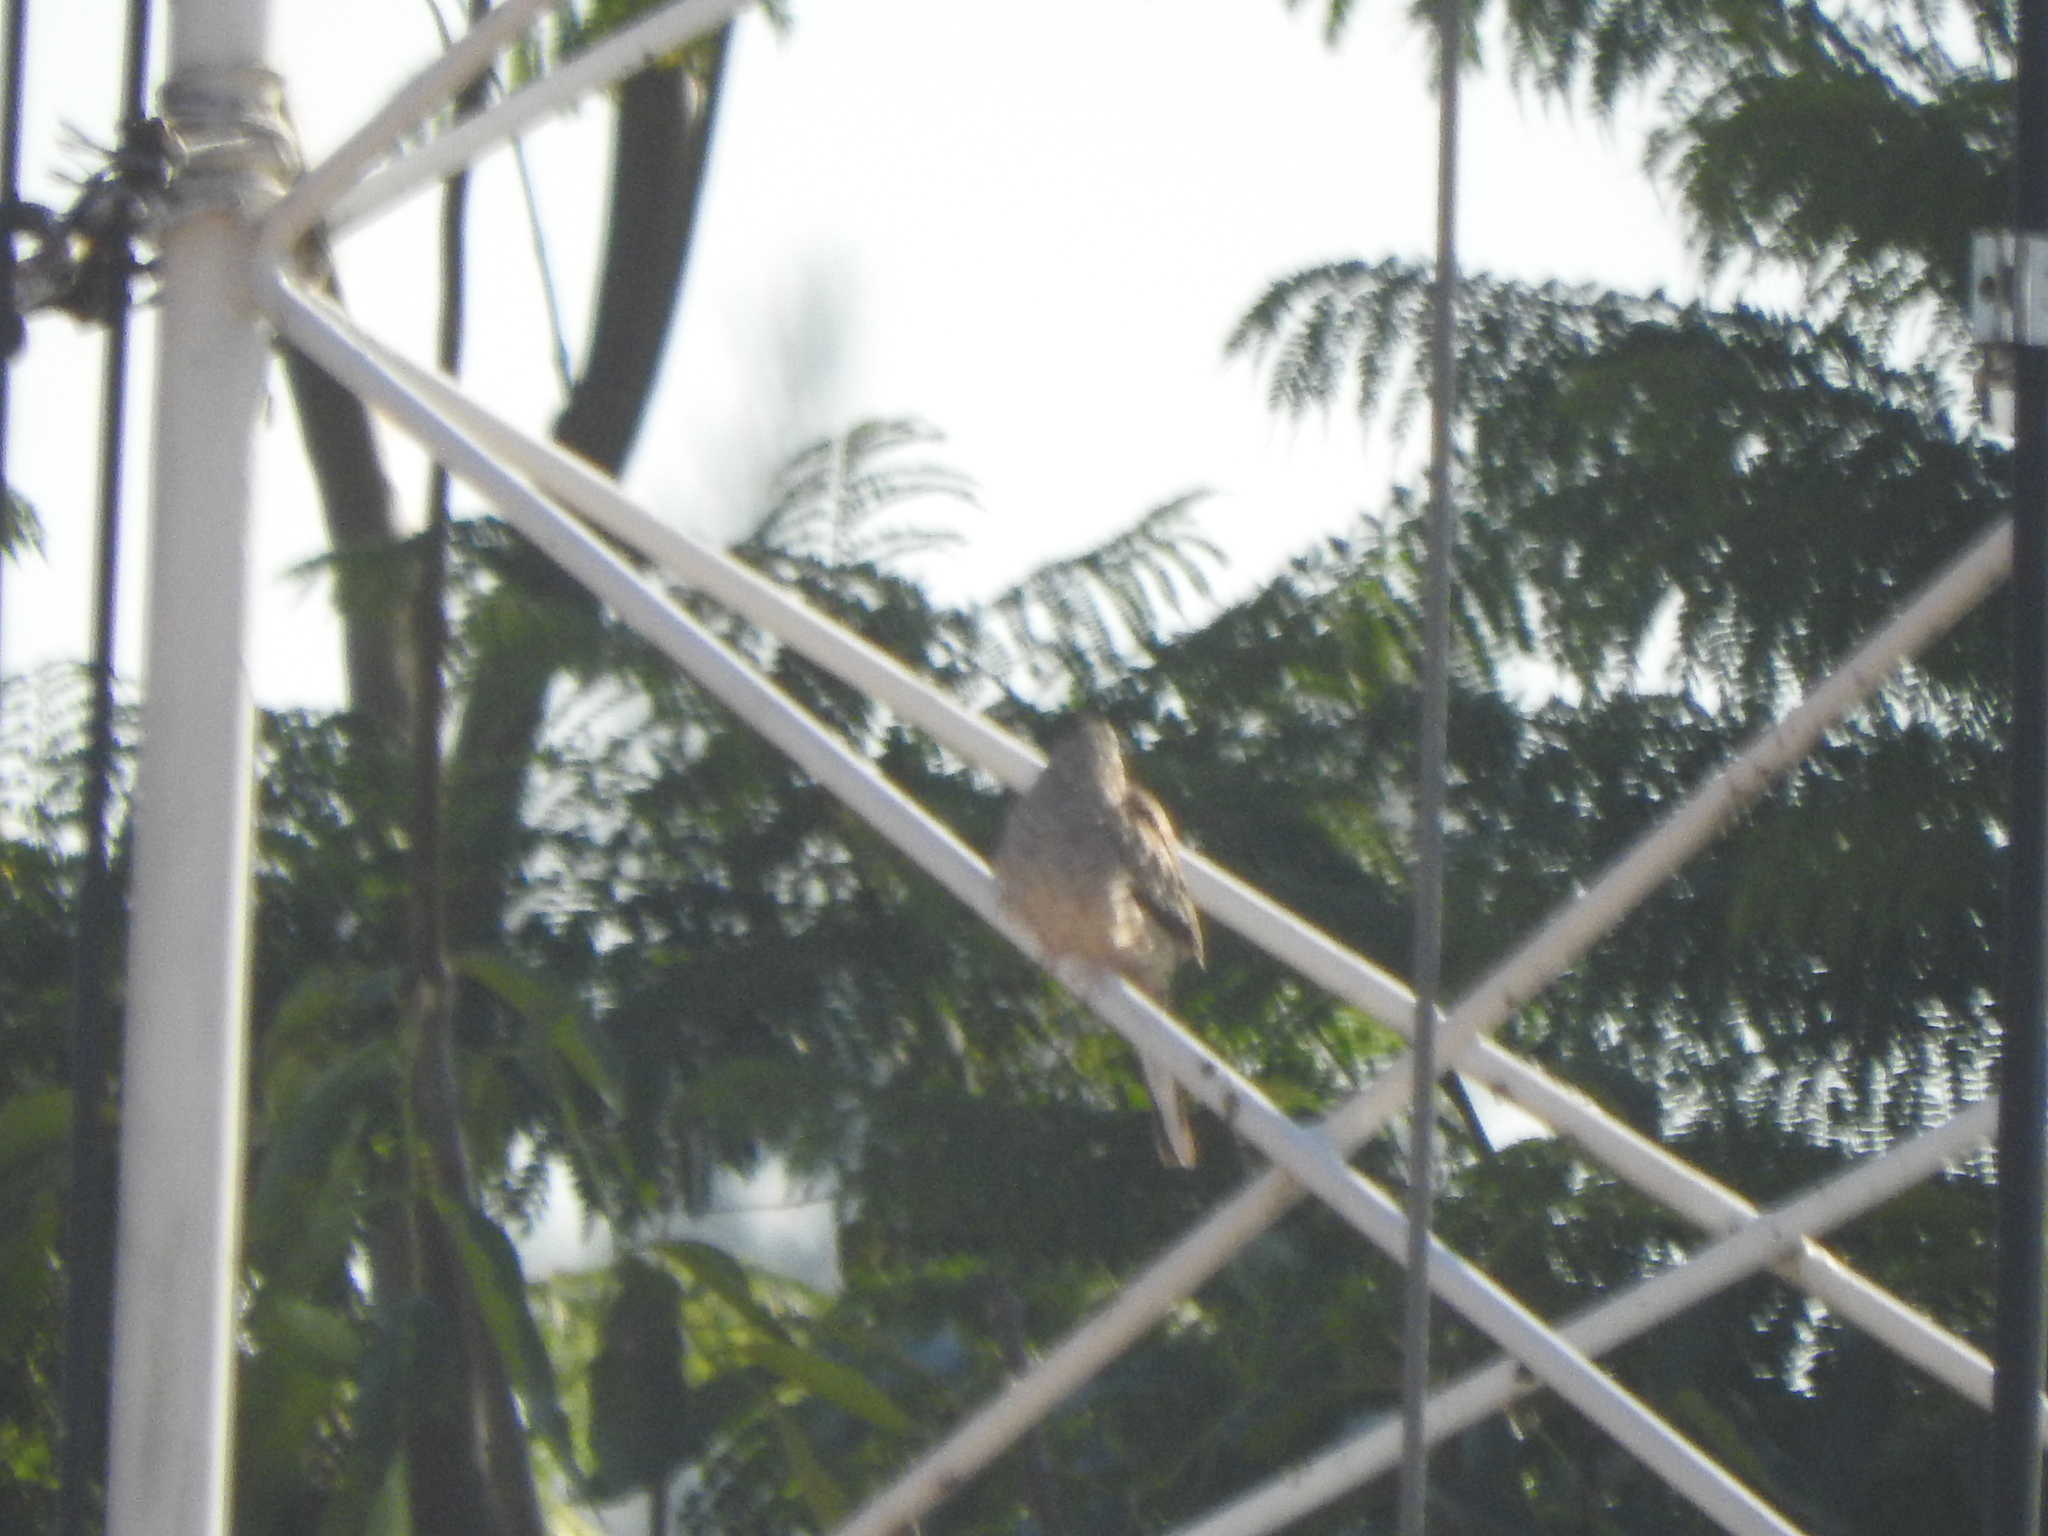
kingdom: Animalia
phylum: Chordata
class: Aves
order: Columbiformes
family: Columbidae
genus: Columbina
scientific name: Columbina inca
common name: Inca dove
